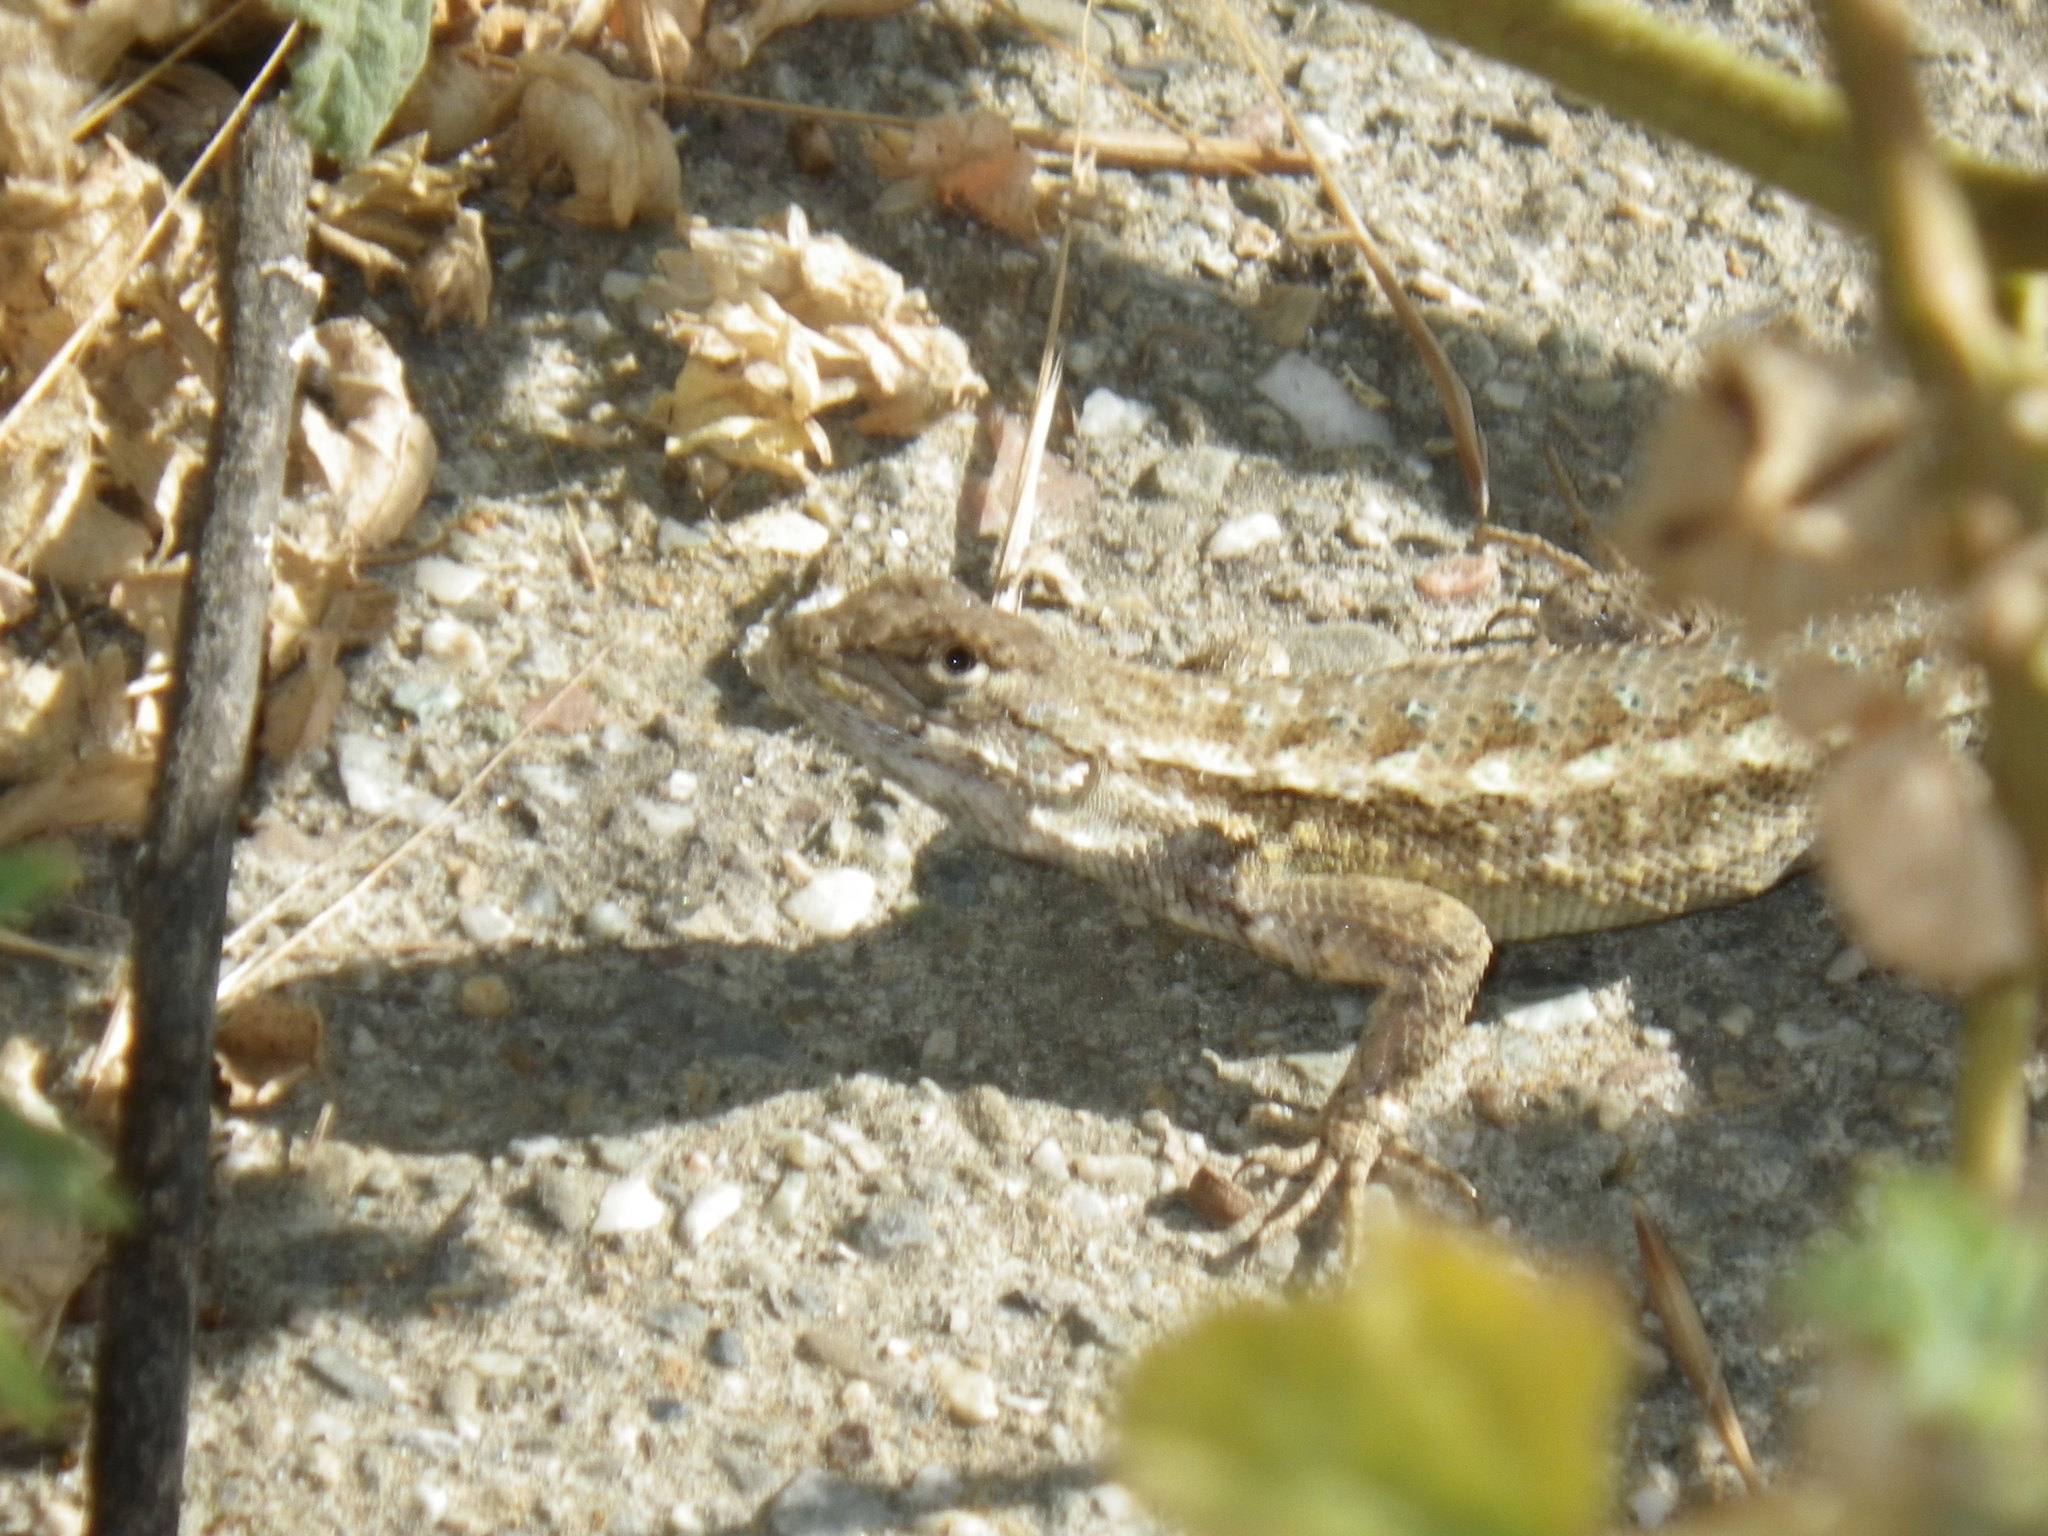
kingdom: Animalia
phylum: Chordata
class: Squamata
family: Phrynosomatidae
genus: Sceloporus
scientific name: Sceloporus occidentalis
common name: Western fence lizard
